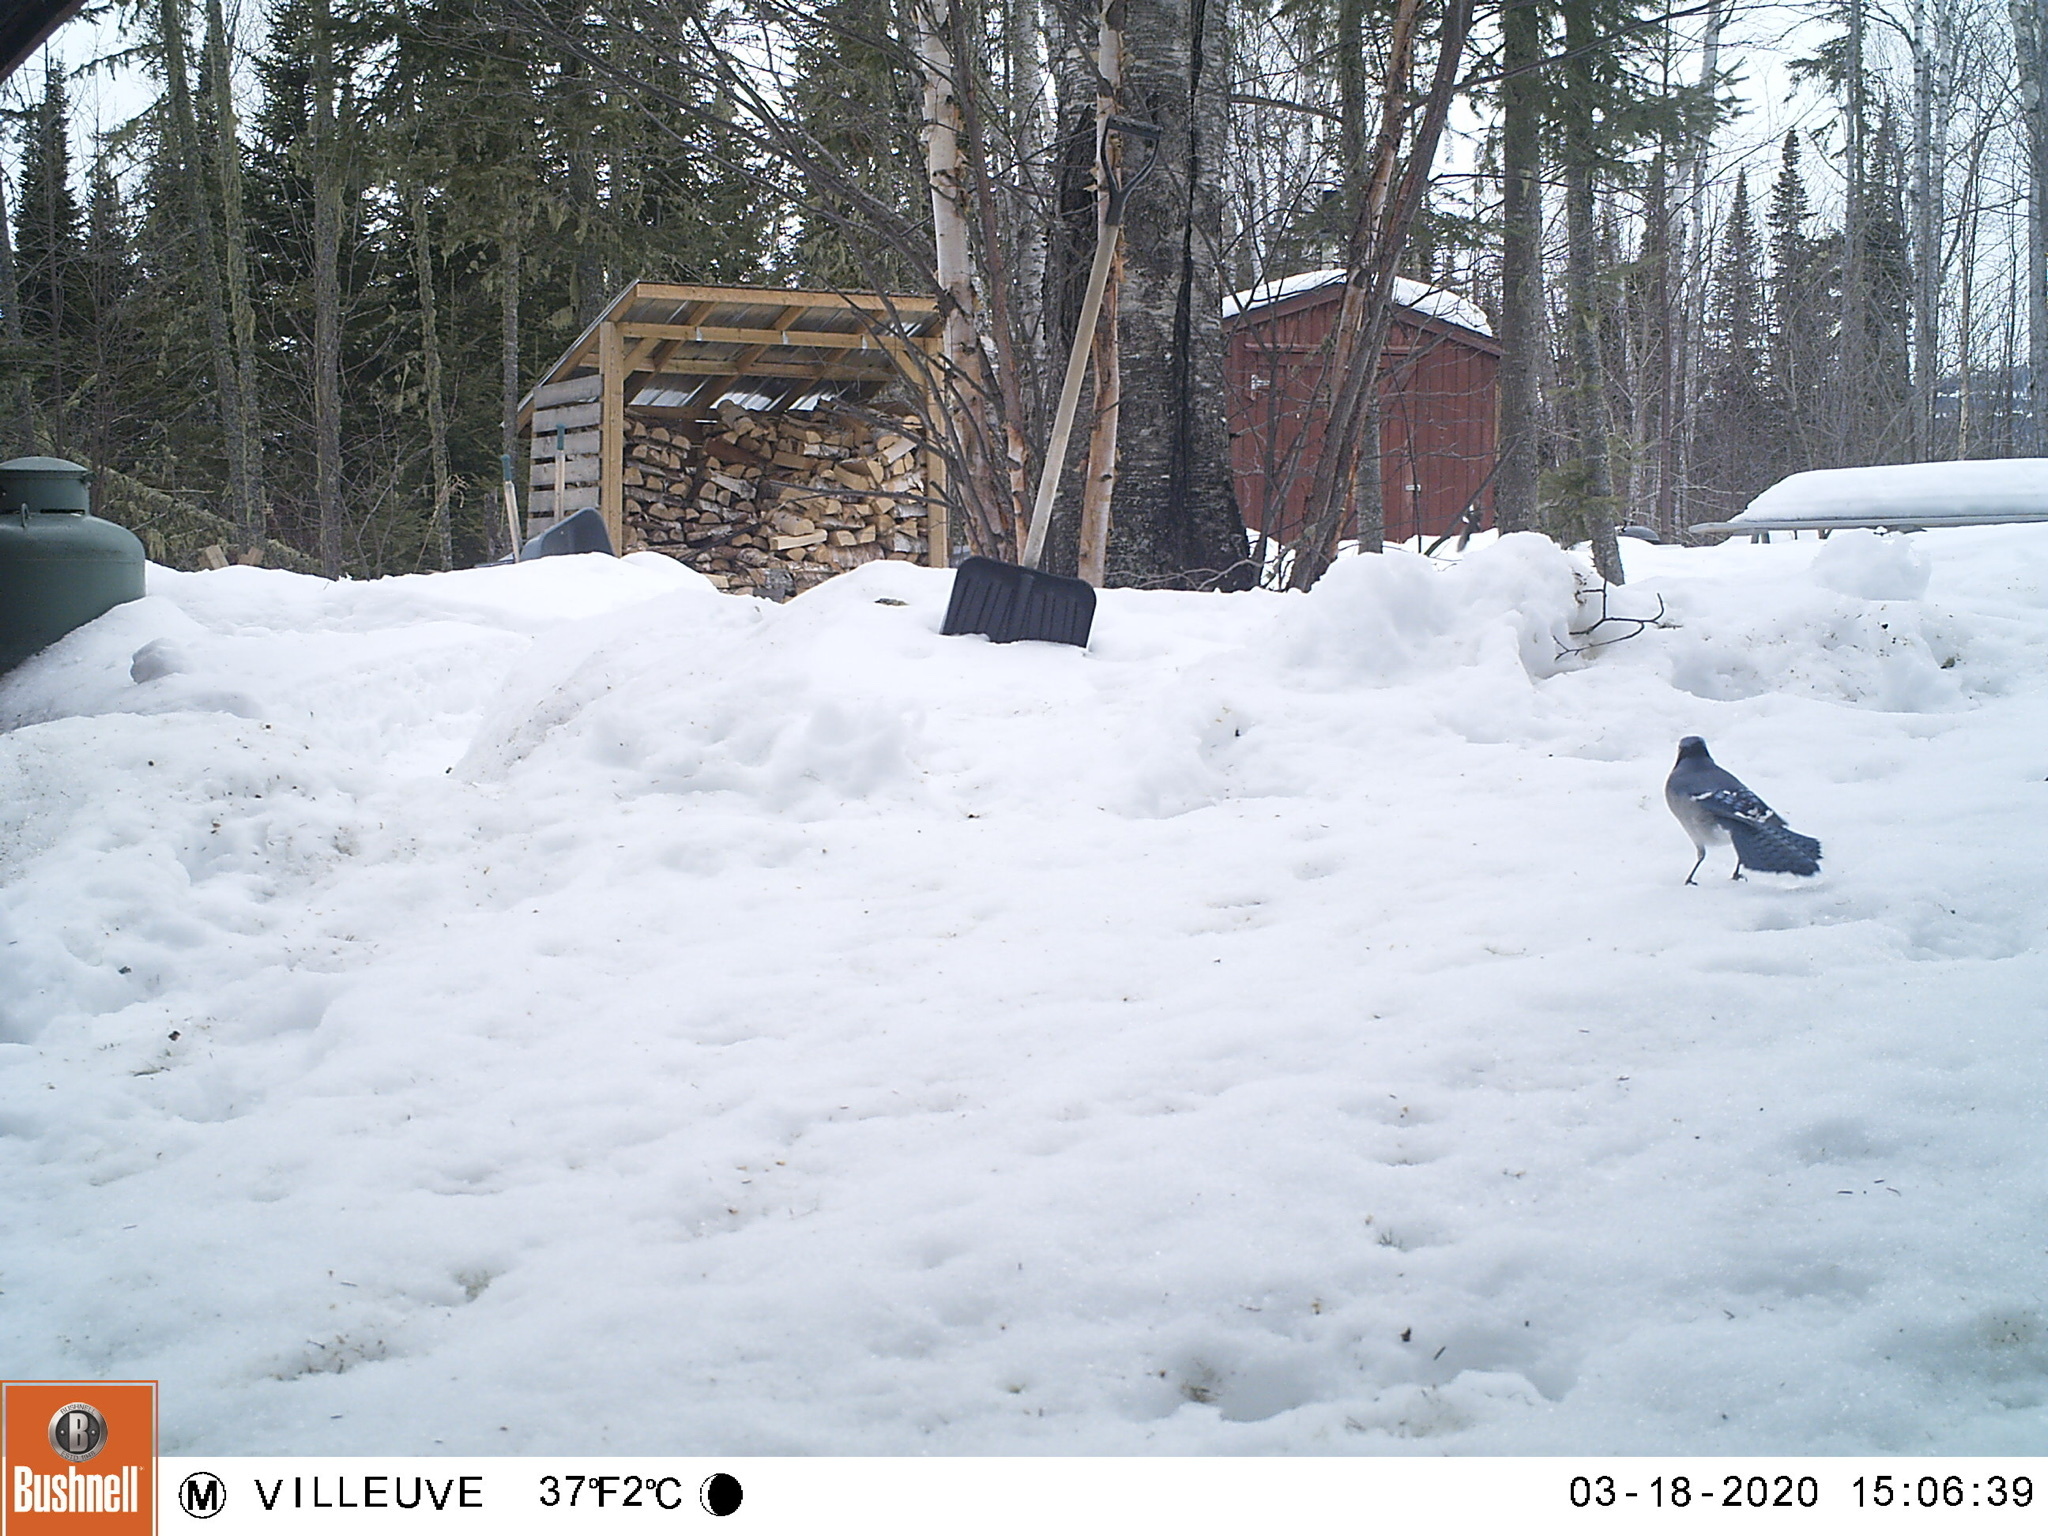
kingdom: Animalia
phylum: Chordata
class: Aves
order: Passeriformes
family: Corvidae
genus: Cyanocitta
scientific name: Cyanocitta cristata
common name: Blue jay
